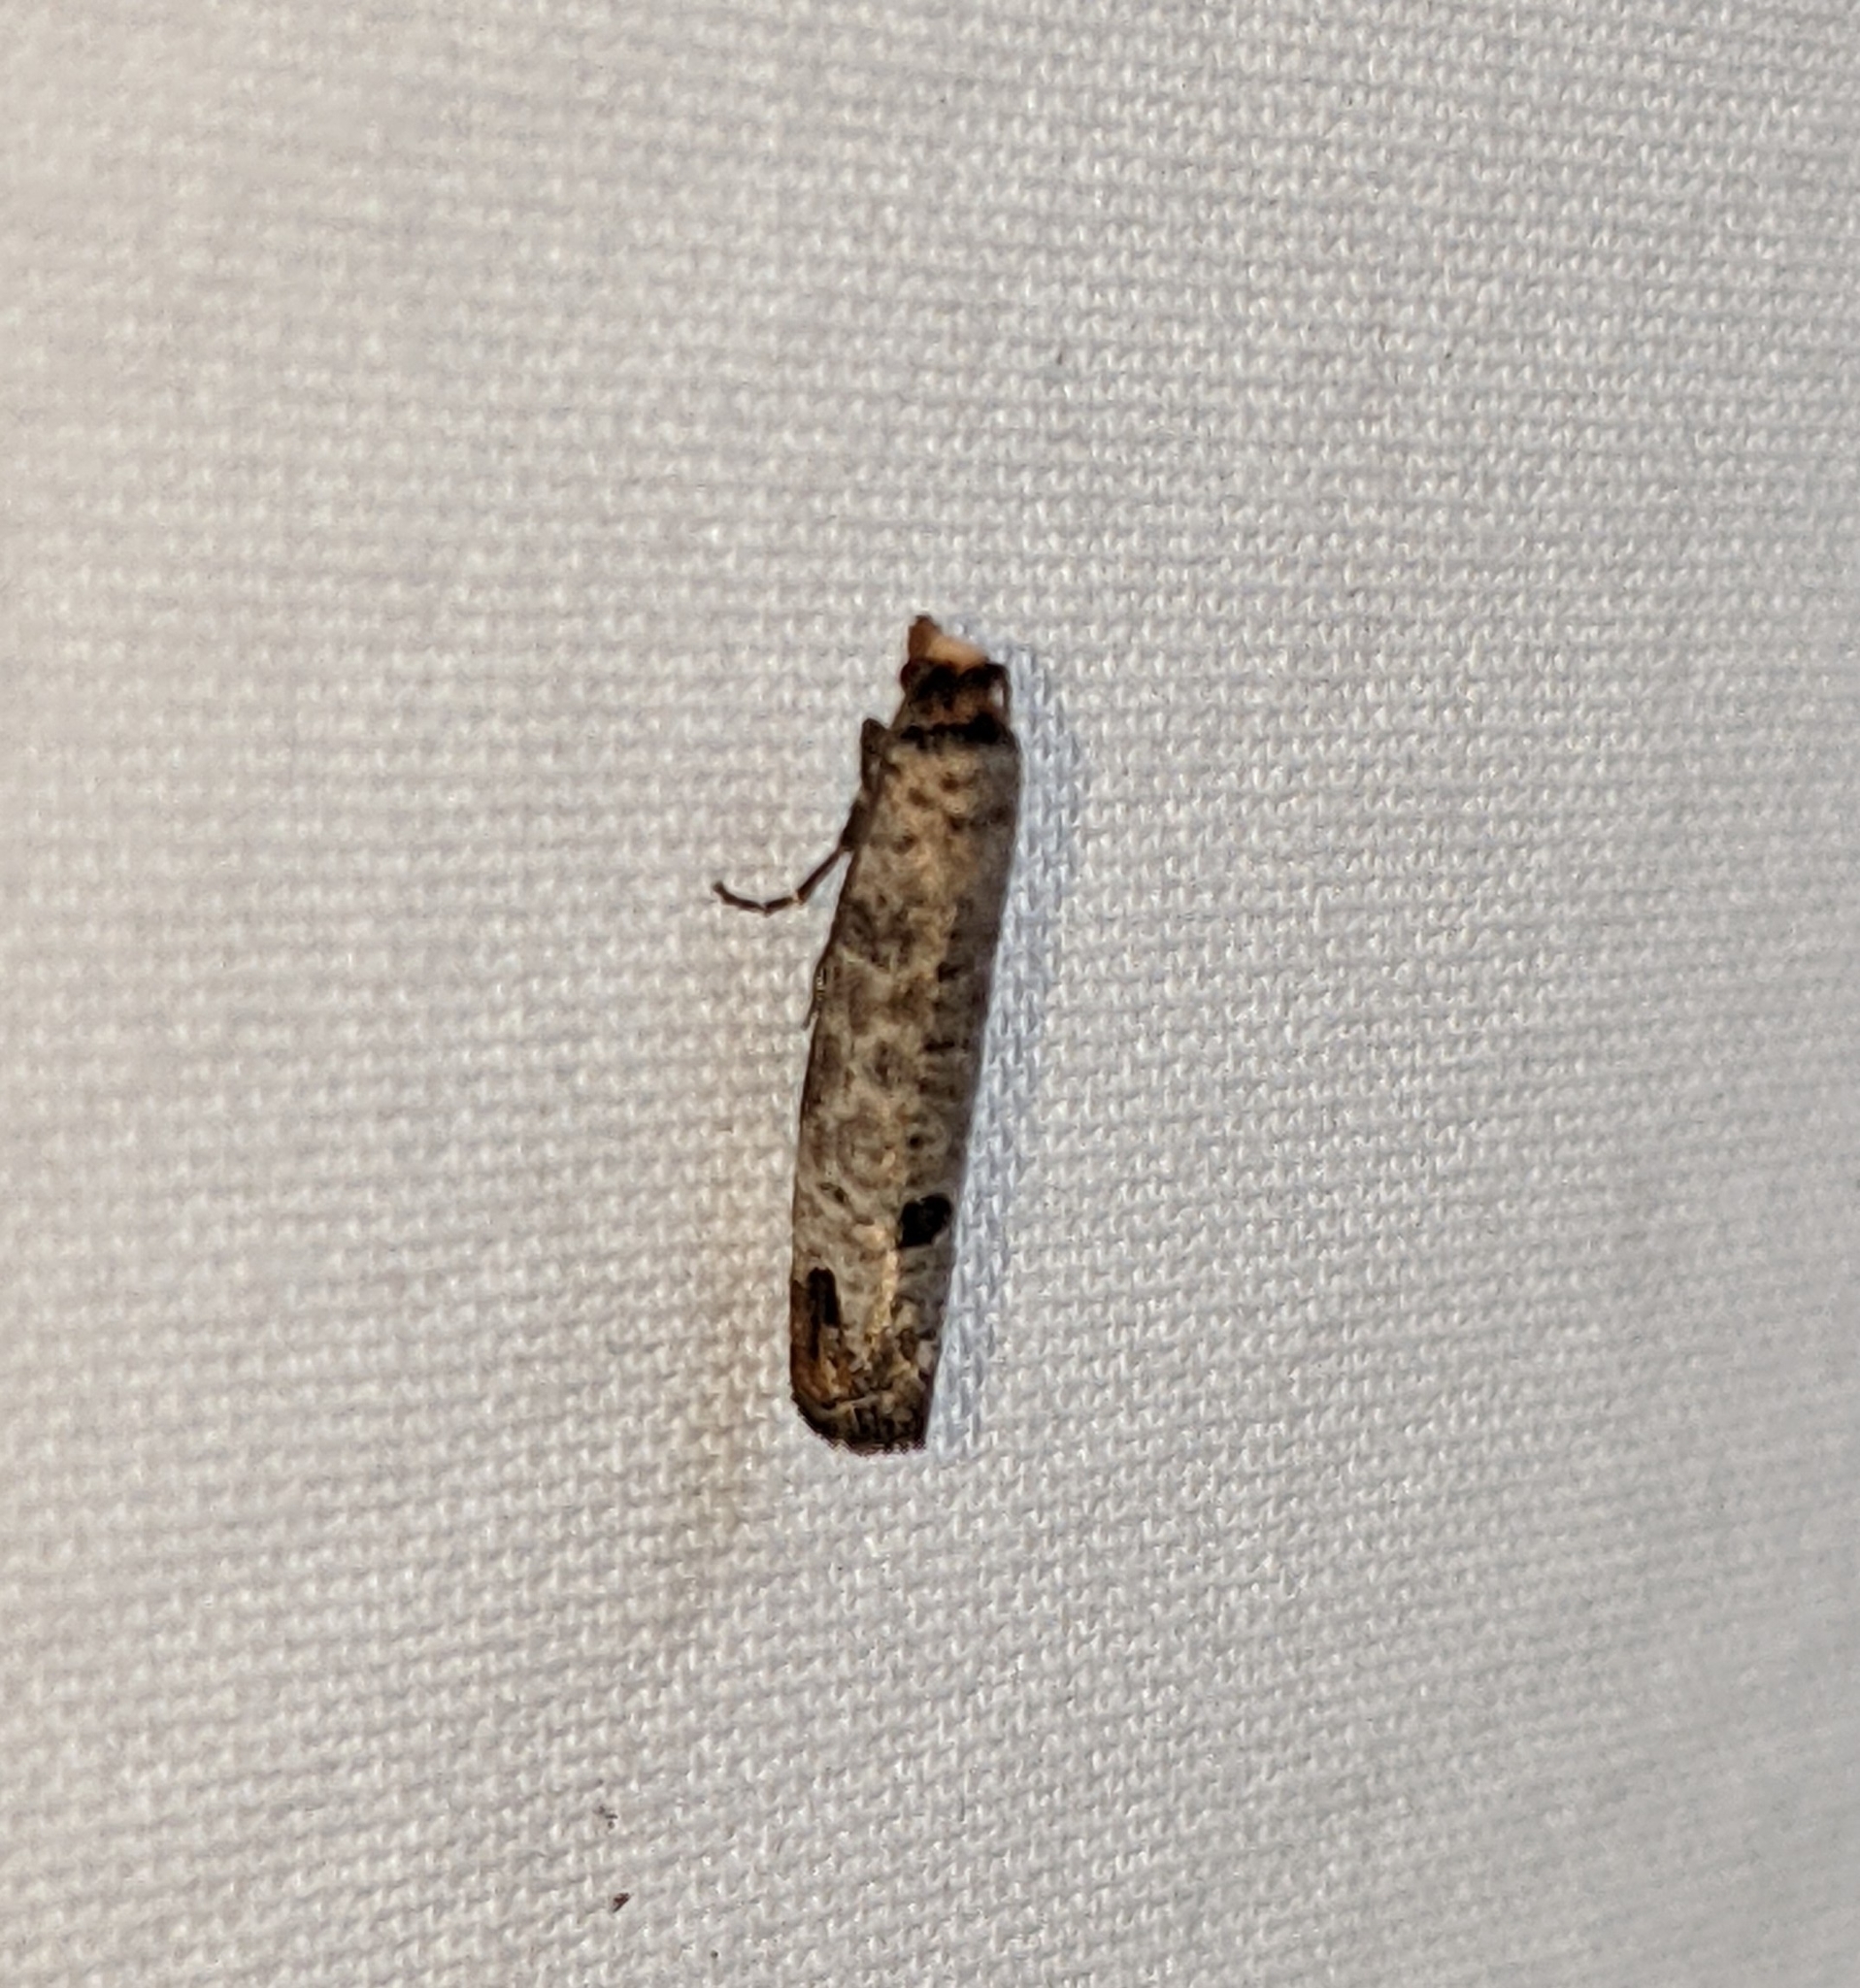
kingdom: Animalia
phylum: Arthropoda
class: Insecta
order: Lepidoptera
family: Tortricidae
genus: Retinia
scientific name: Retinia picicolana
